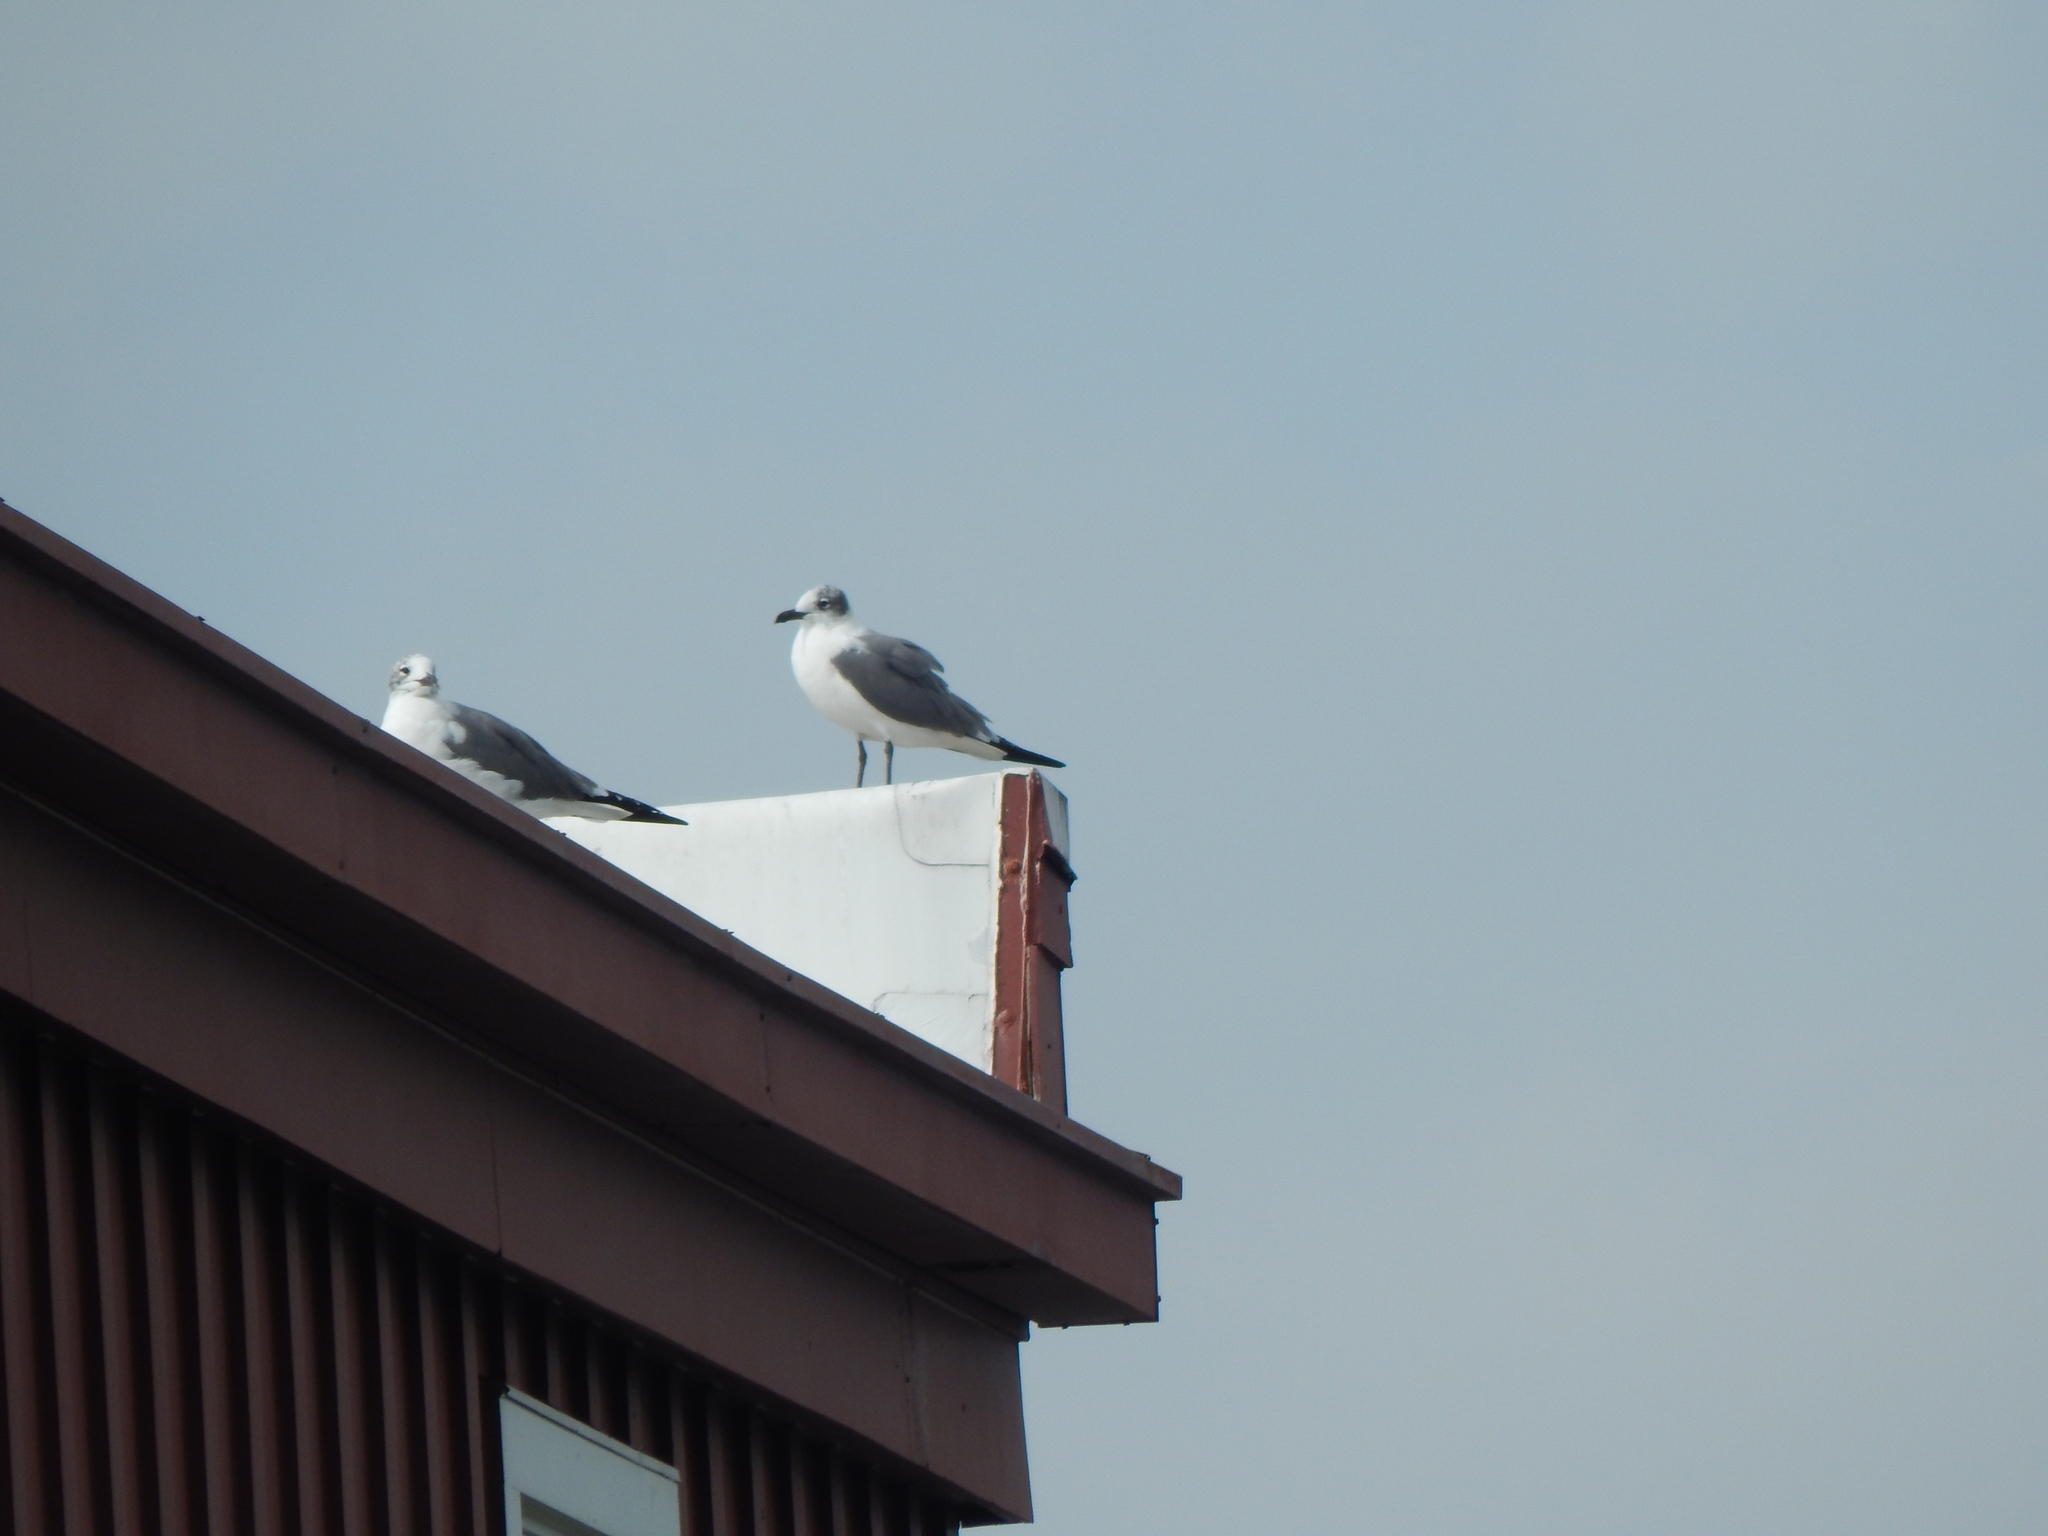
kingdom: Animalia
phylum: Chordata
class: Aves
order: Charadriiformes
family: Laridae
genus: Leucophaeus
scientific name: Leucophaeus atricilla
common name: Laughing gull
